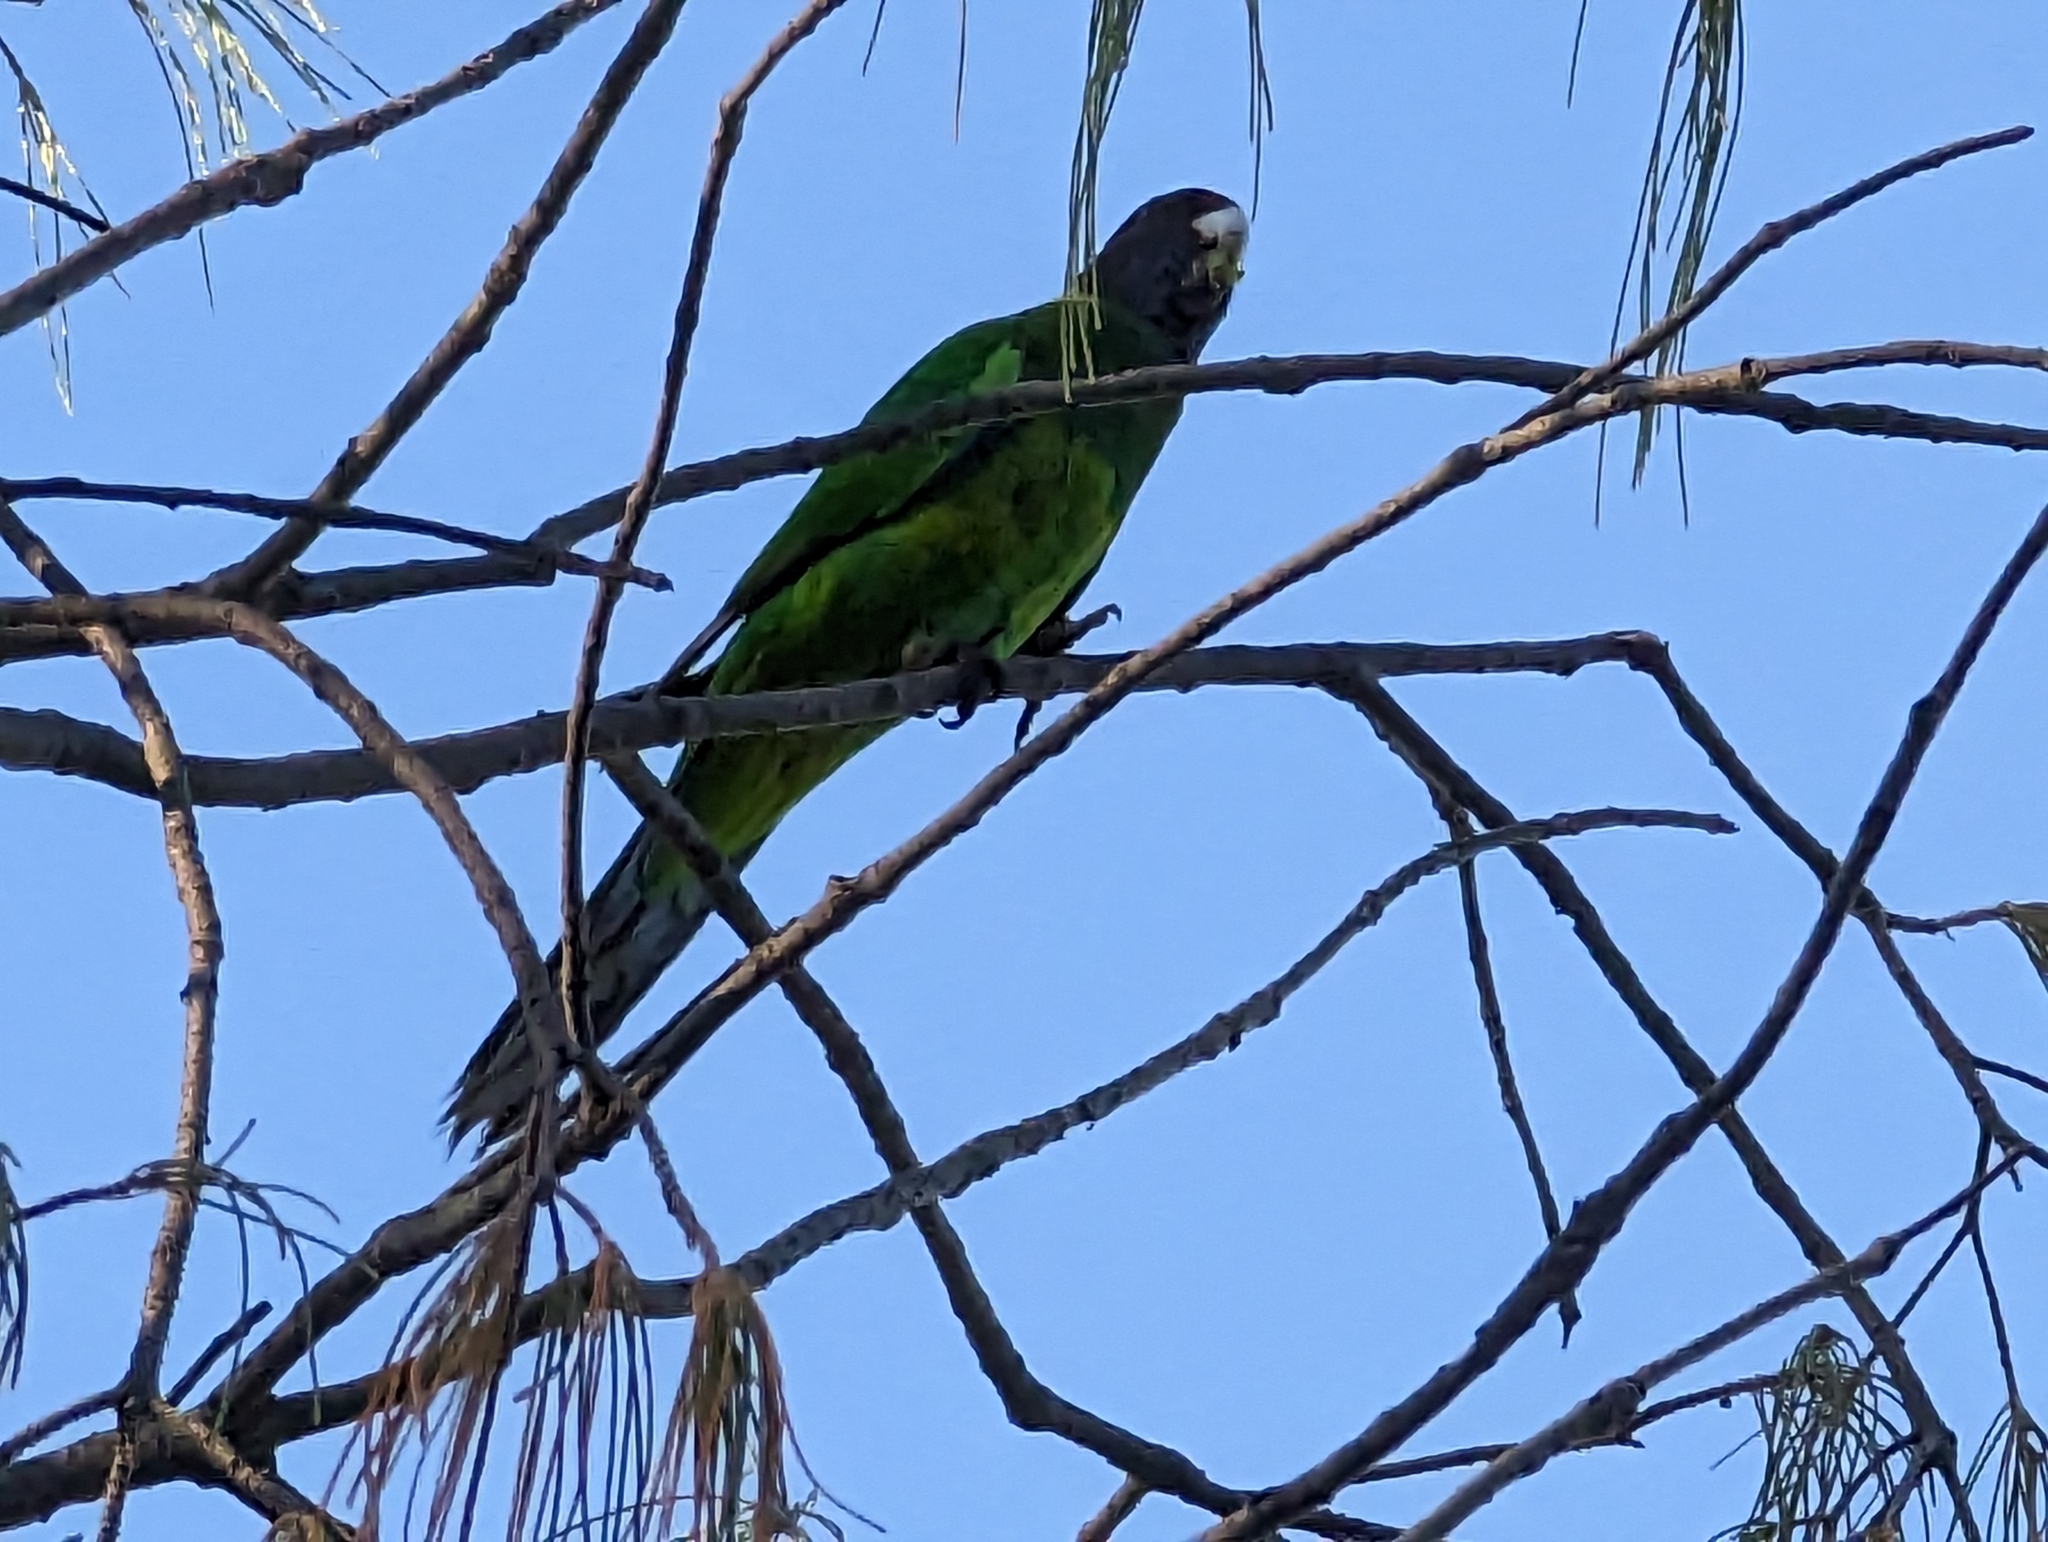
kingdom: Animalia
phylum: Chordata
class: Aves
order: Psittaciformes
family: Psittacidae
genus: Barnardius
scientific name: Barnardius zonarius
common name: Australian ringneck
